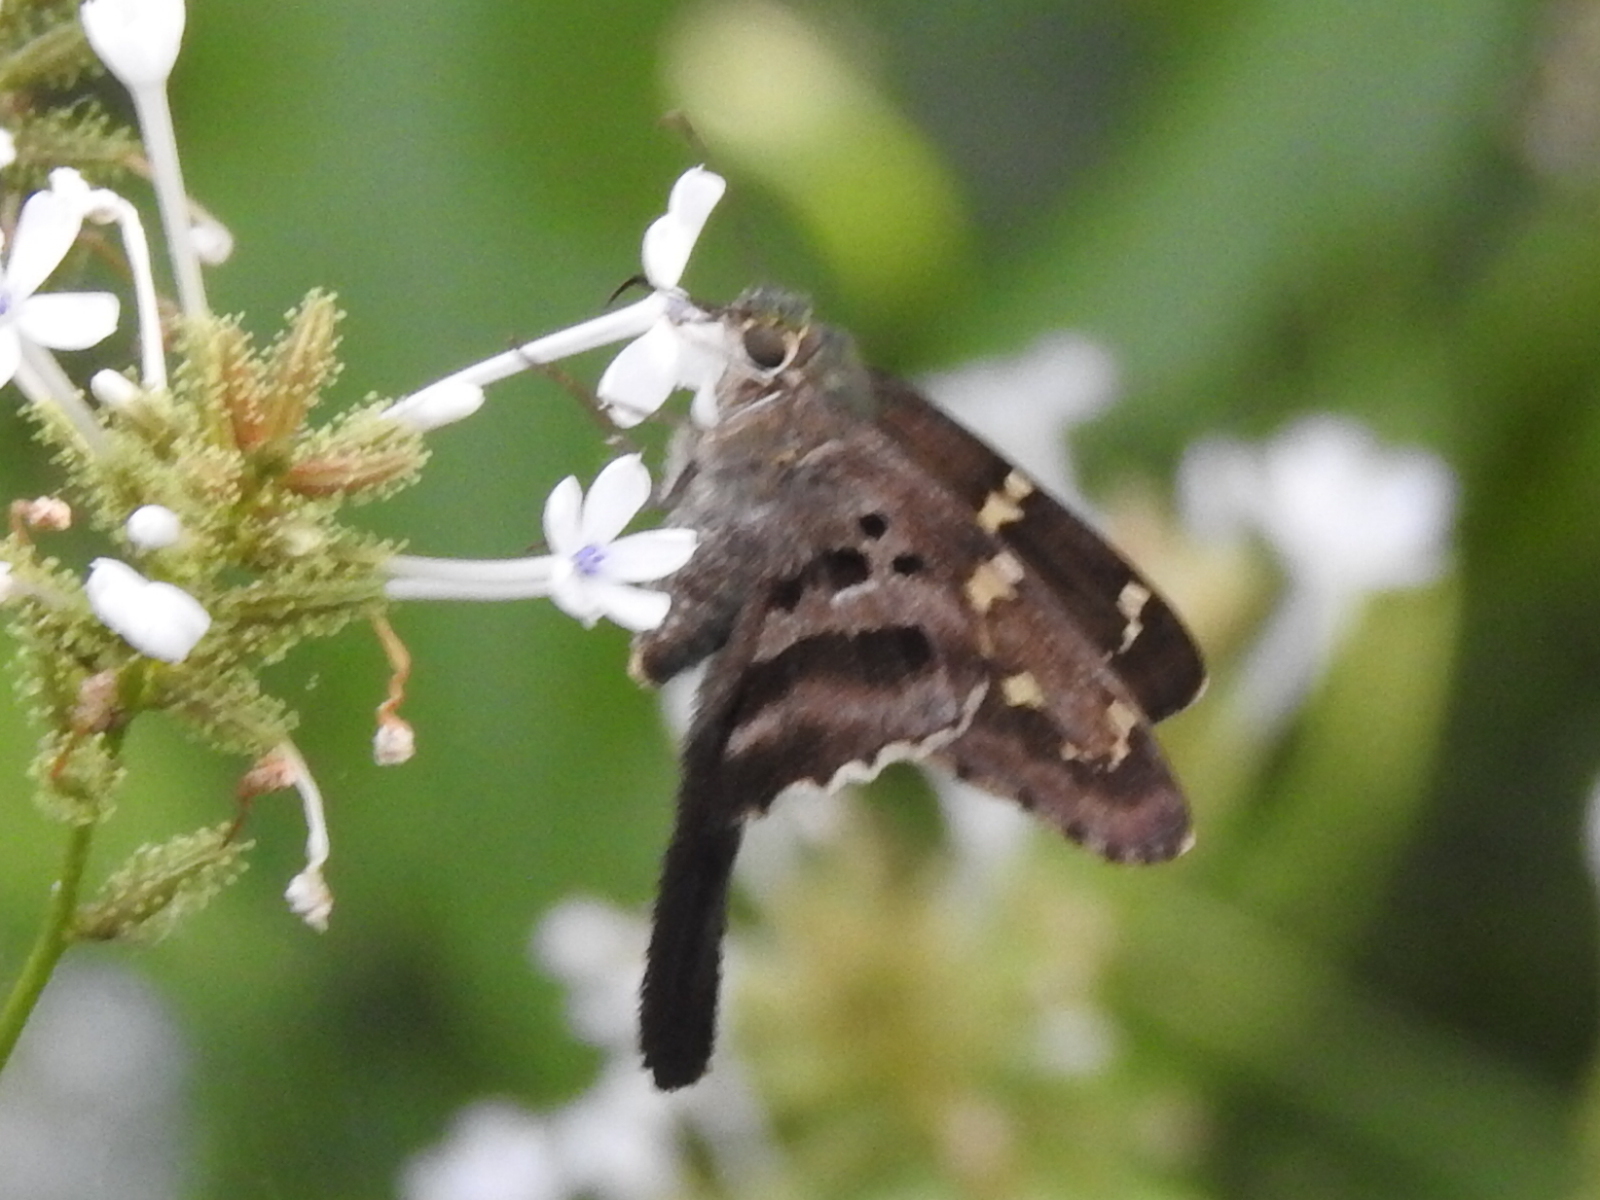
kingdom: Animalia
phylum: Arthropoda
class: Insecta
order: Lepidoptera
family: Hesperiidae
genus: Urbanus
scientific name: Urbanus proteus
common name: Long-tailed skipper
